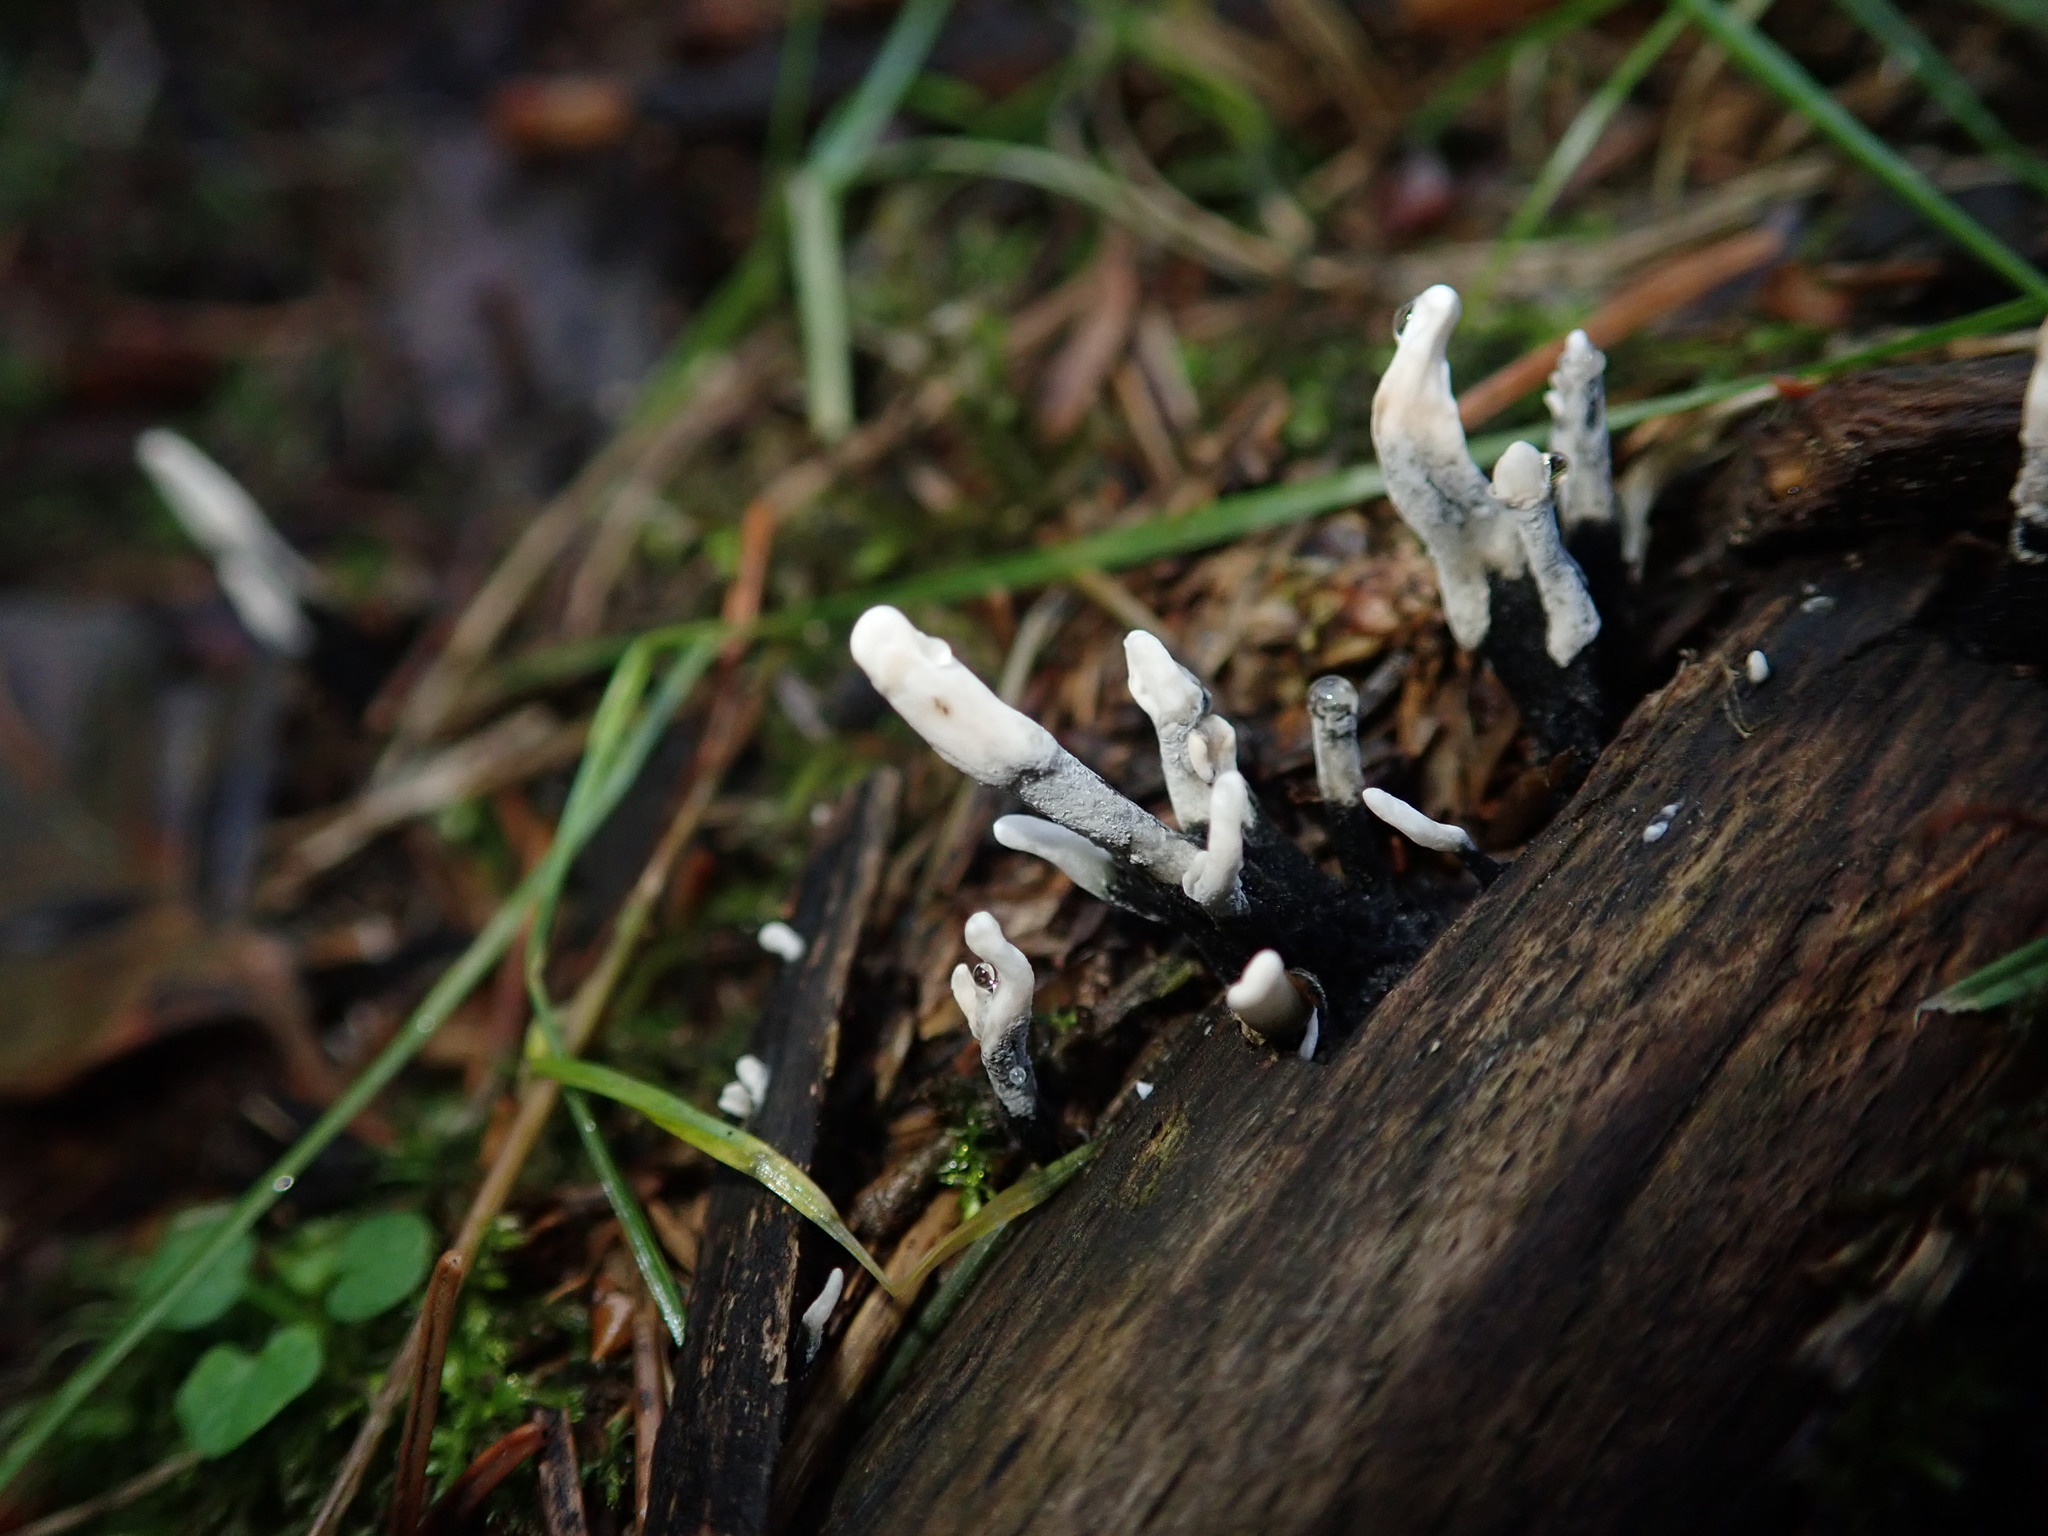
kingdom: Fungi
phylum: Ascomycota
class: Sordariomycetes
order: Xylariales
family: Xylariaceae
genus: Xylaria
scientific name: Xylaria hypoxylon
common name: Candle-snuff fungus
